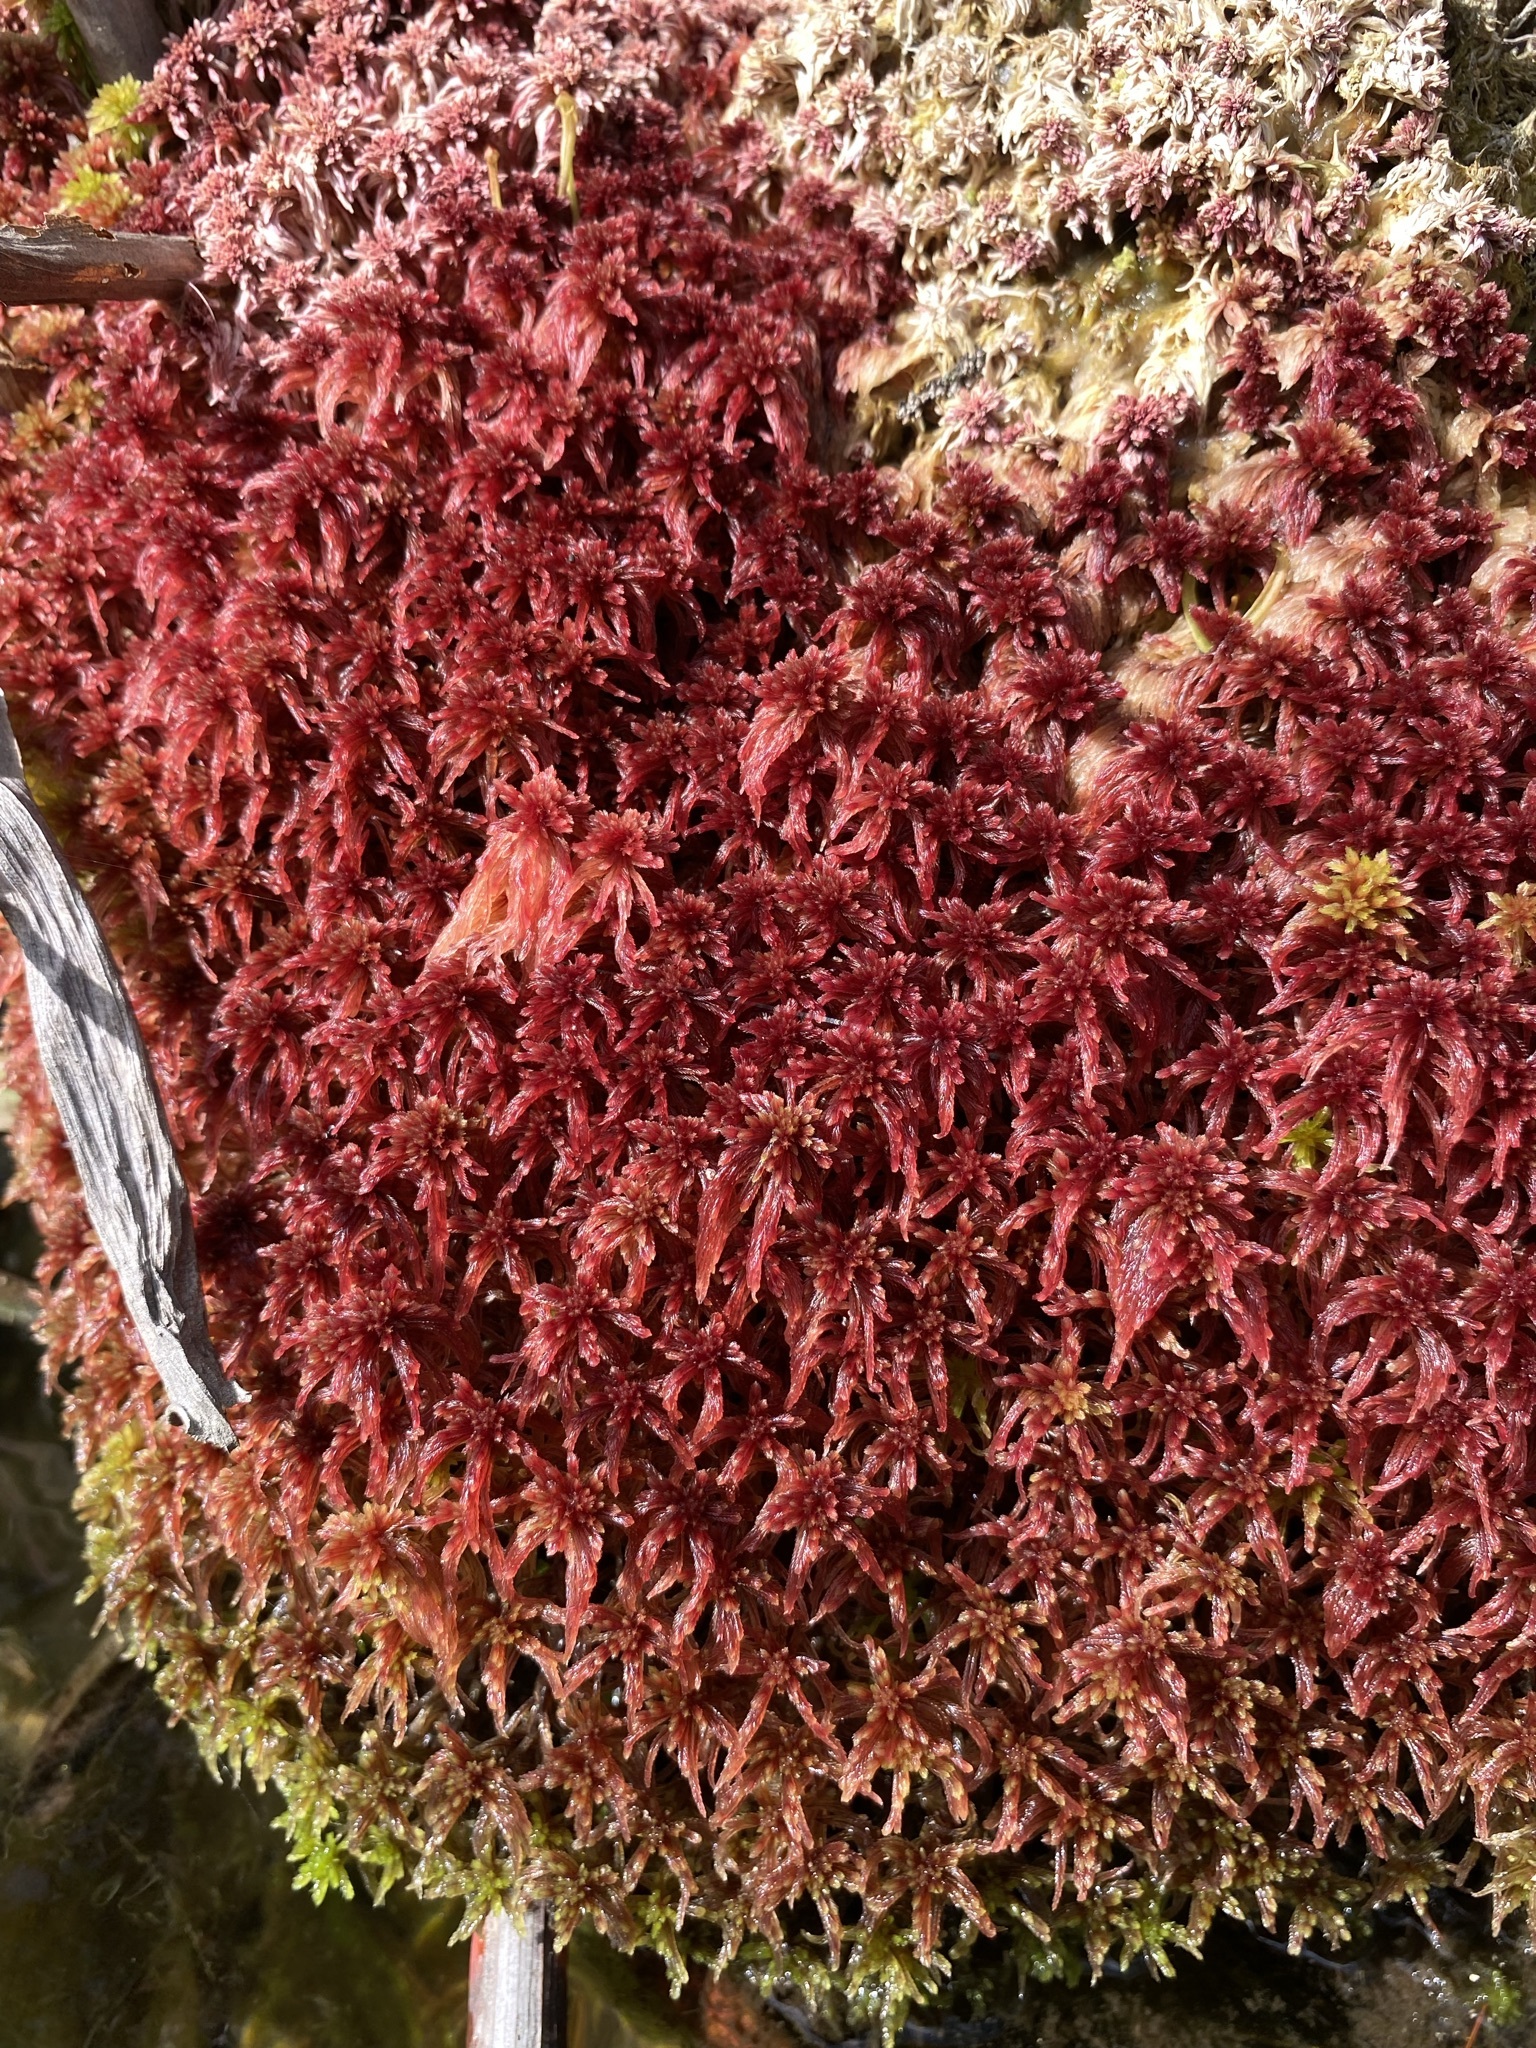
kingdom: Plantae
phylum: Bryophyta
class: Sphagnopsida
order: Sphagnales
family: Sphagnaceae
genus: Sphagnum
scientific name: Sphagnum bartlettianum
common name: Bartlett's peatmoss
